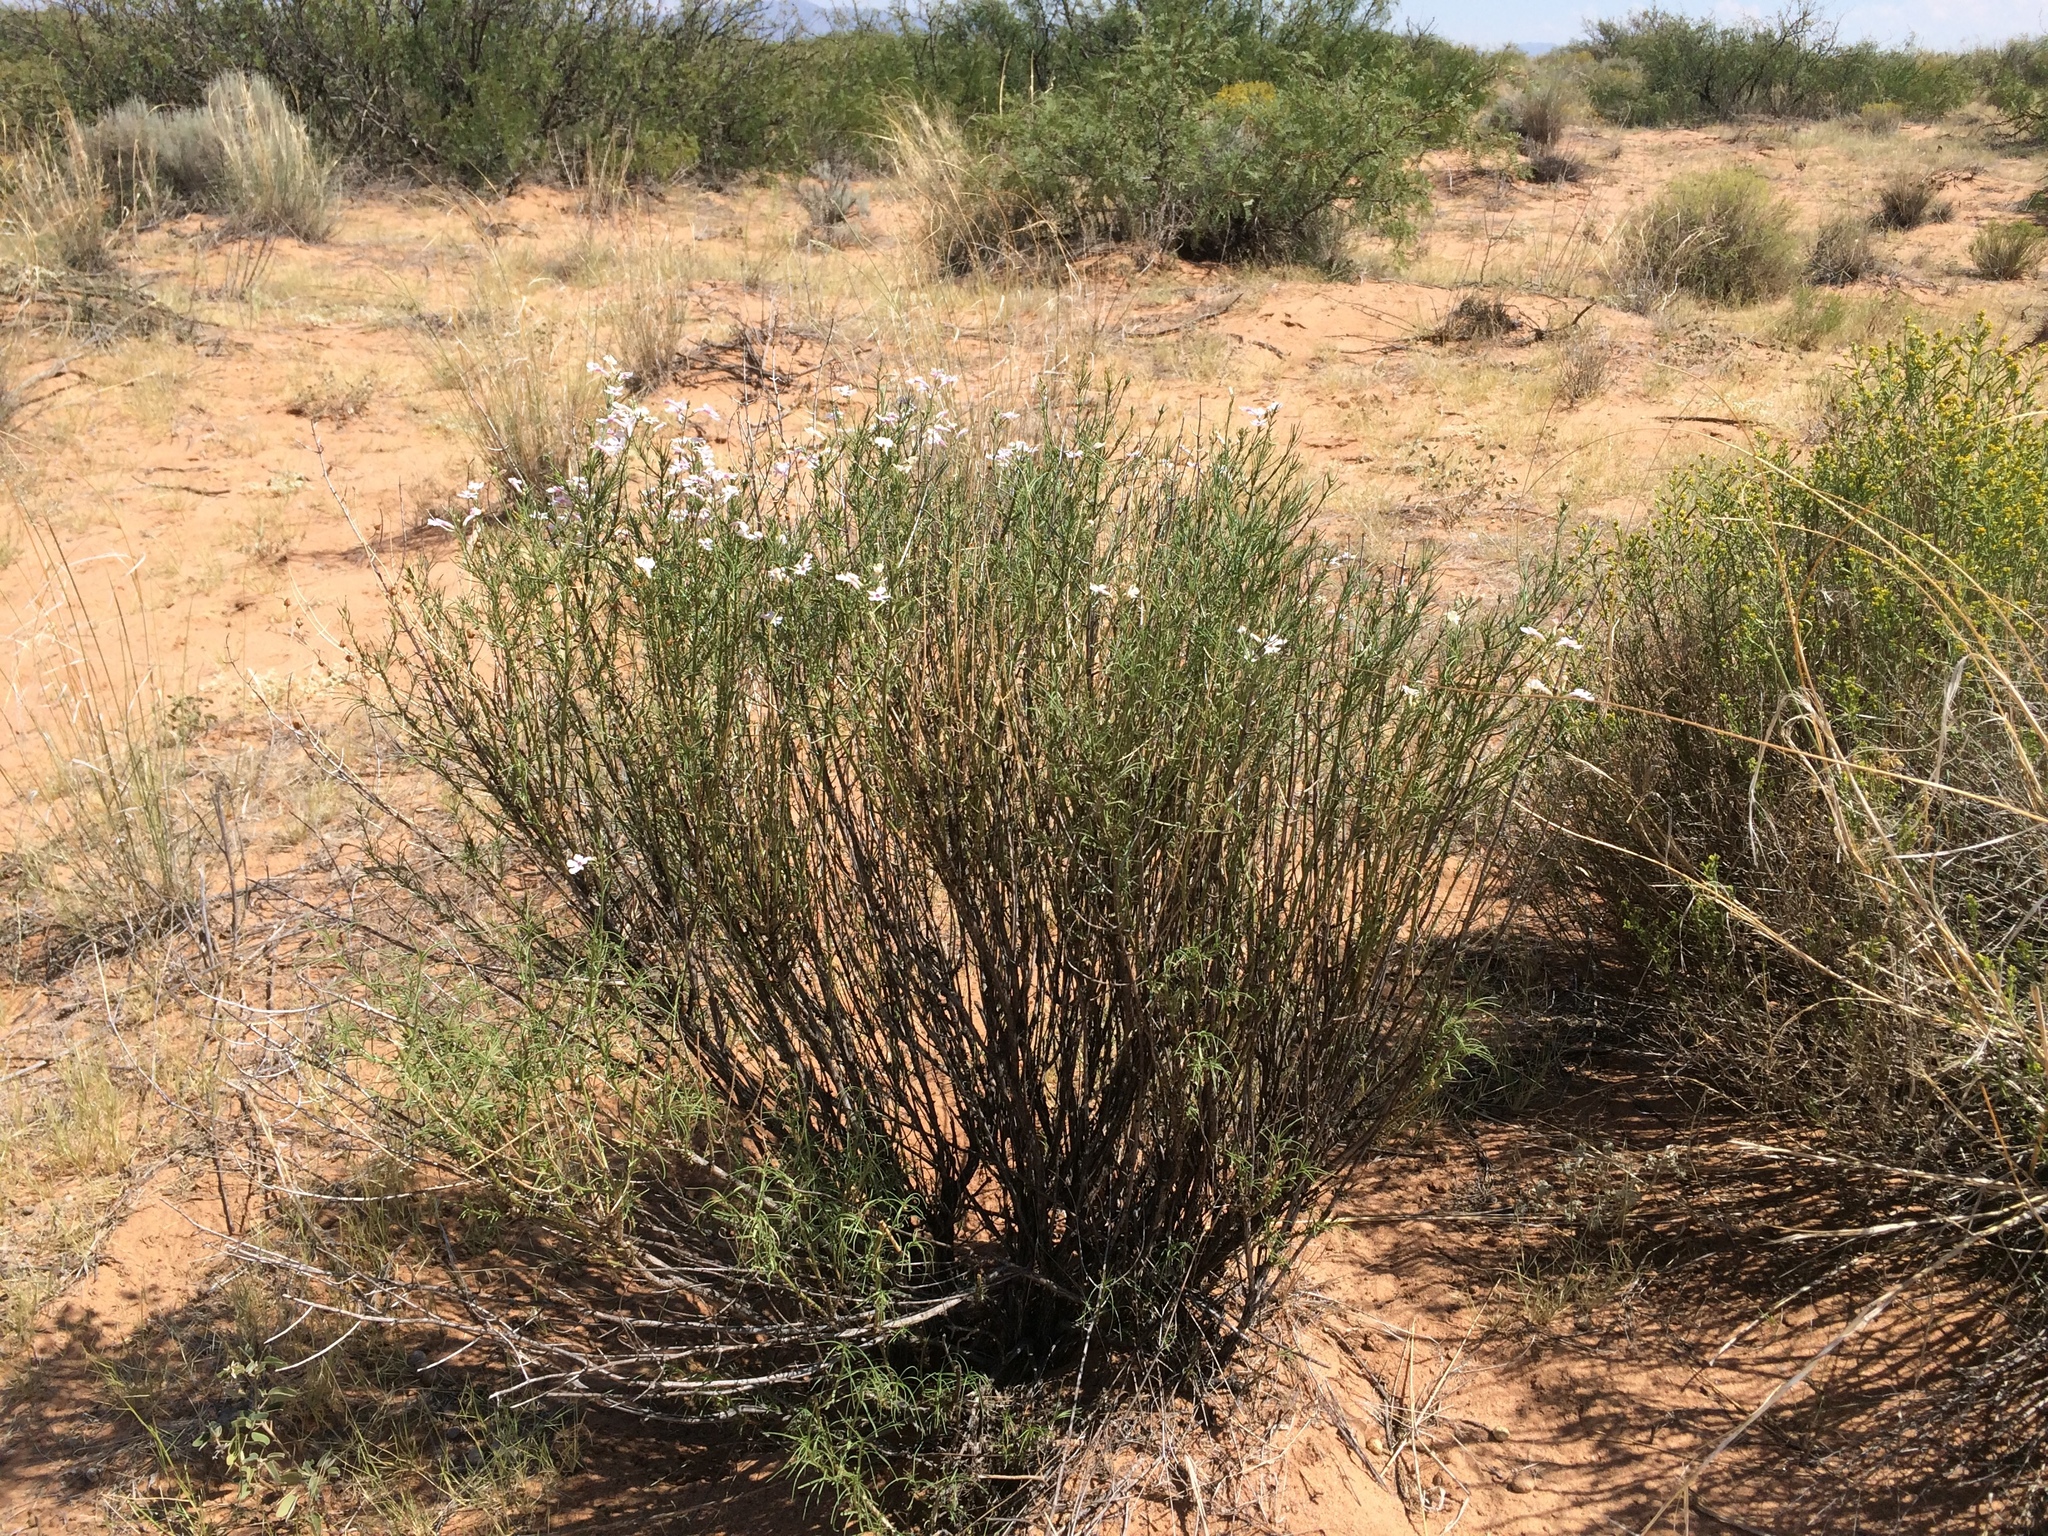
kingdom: Plantae
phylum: Tracheophyta
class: Magnoliopsida
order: Lamiales
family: Plantaginaceae
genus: Penstemon
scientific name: Penstemon ambiguus
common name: Bush penstemon
